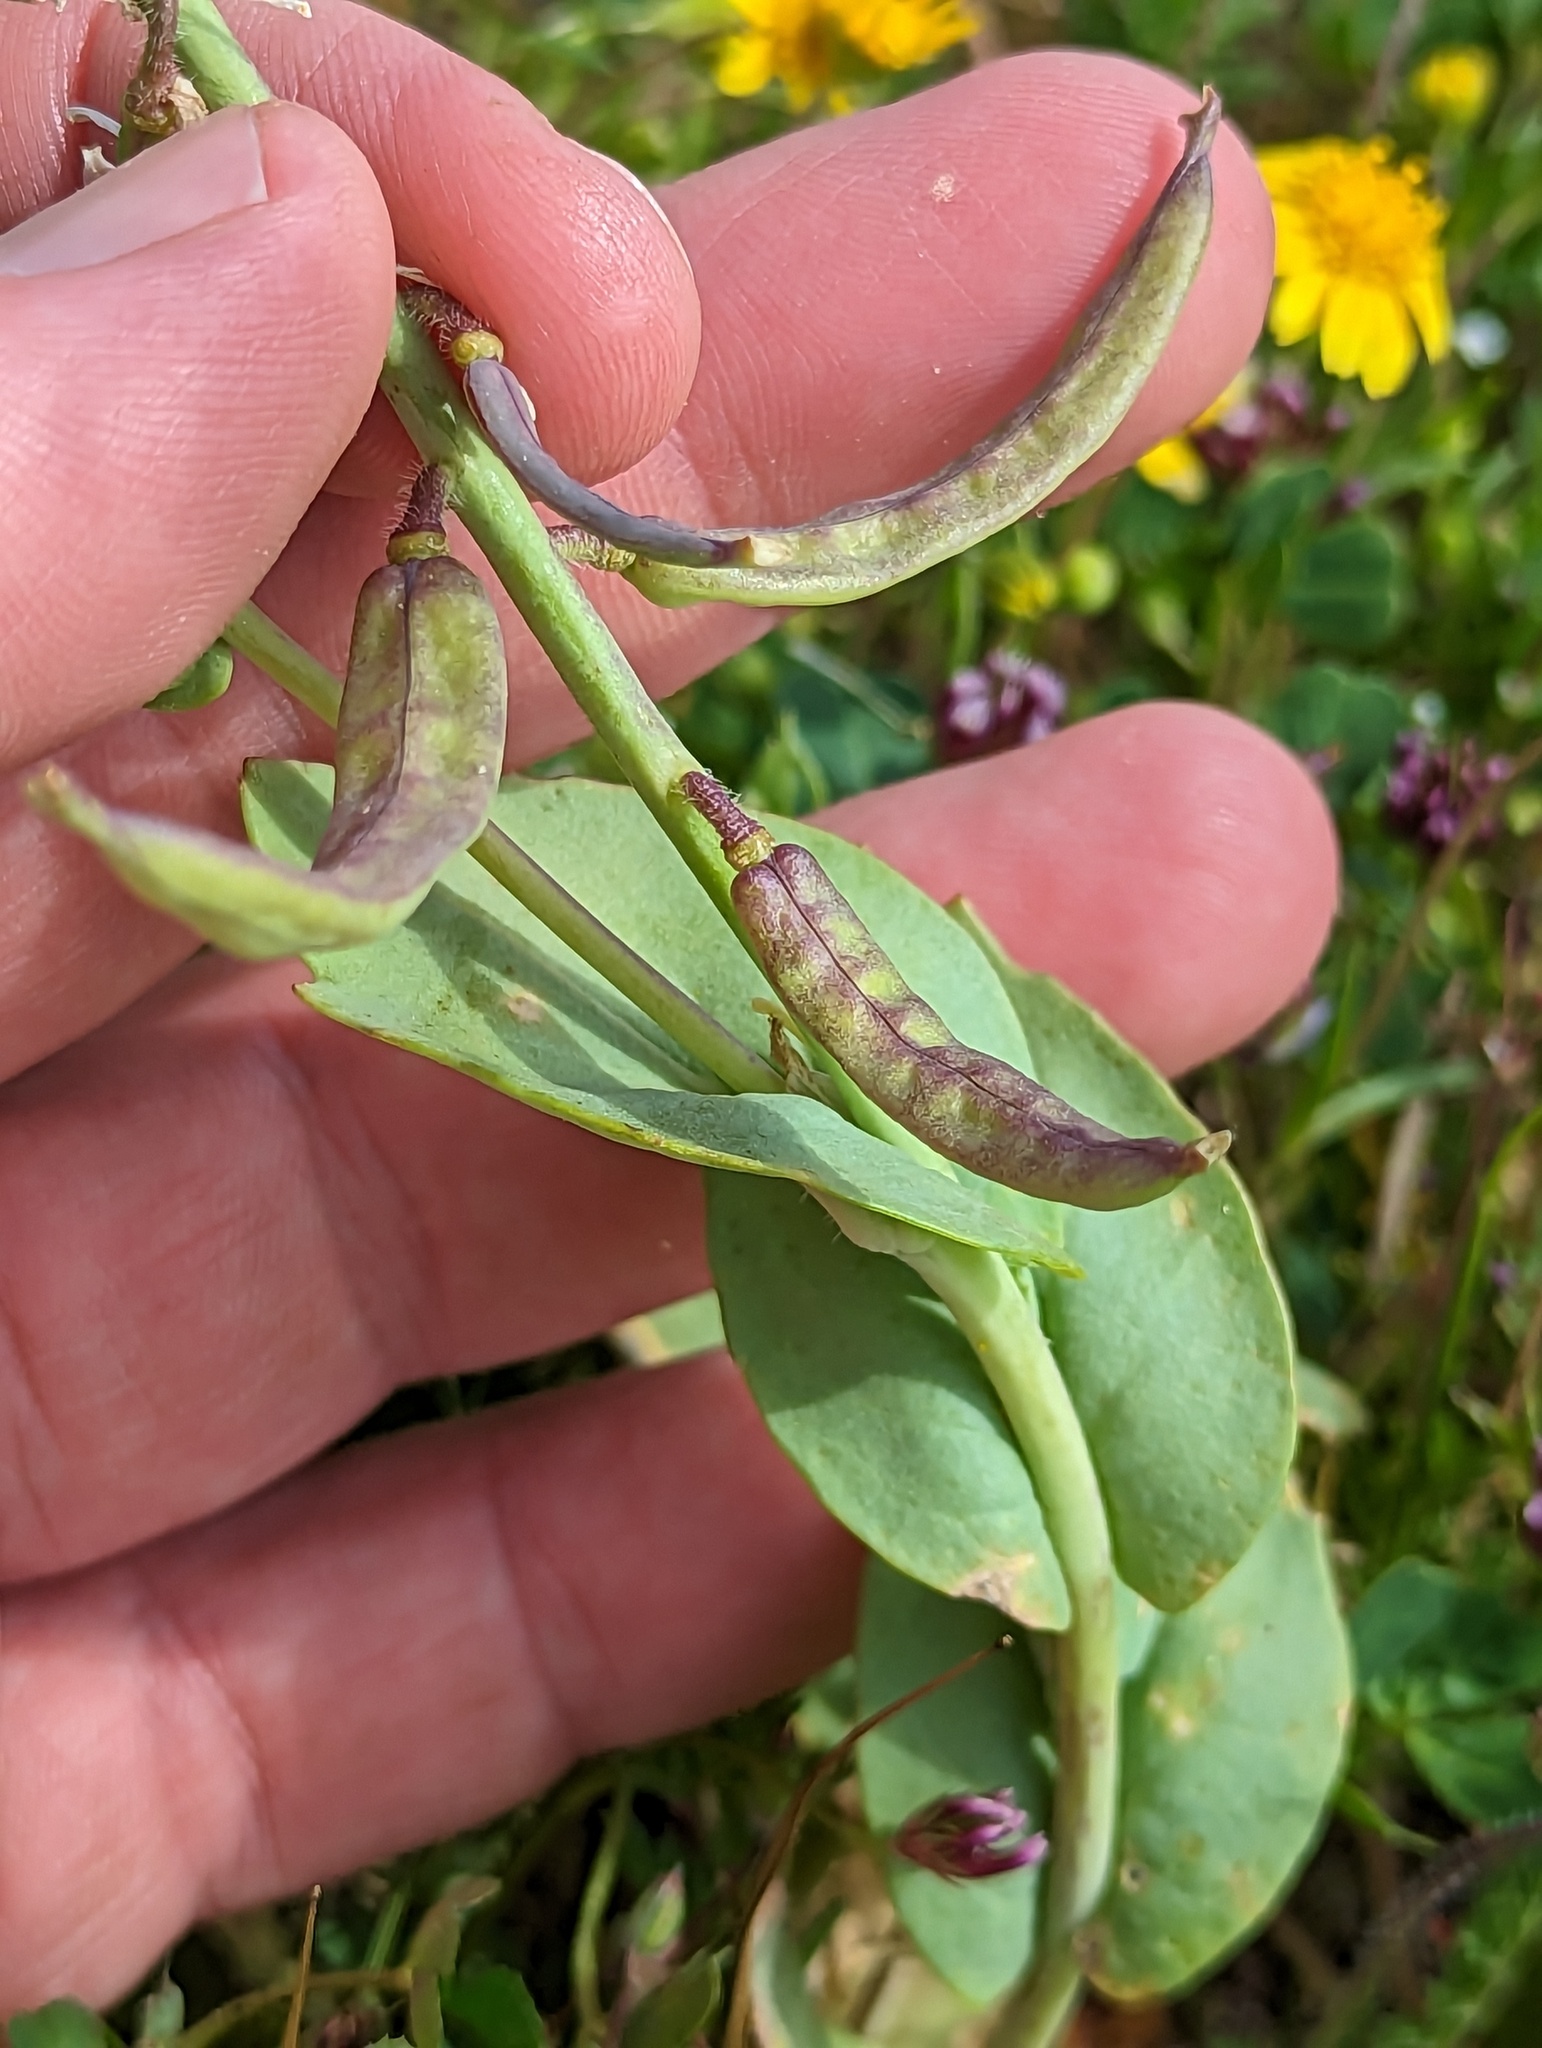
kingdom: Plantae
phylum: Tracheophyta
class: Magnoliopsida
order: Brassicales
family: Brassicaceae
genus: Streptanthus
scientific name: Streptanthus californicus
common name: California-jewel-flower
